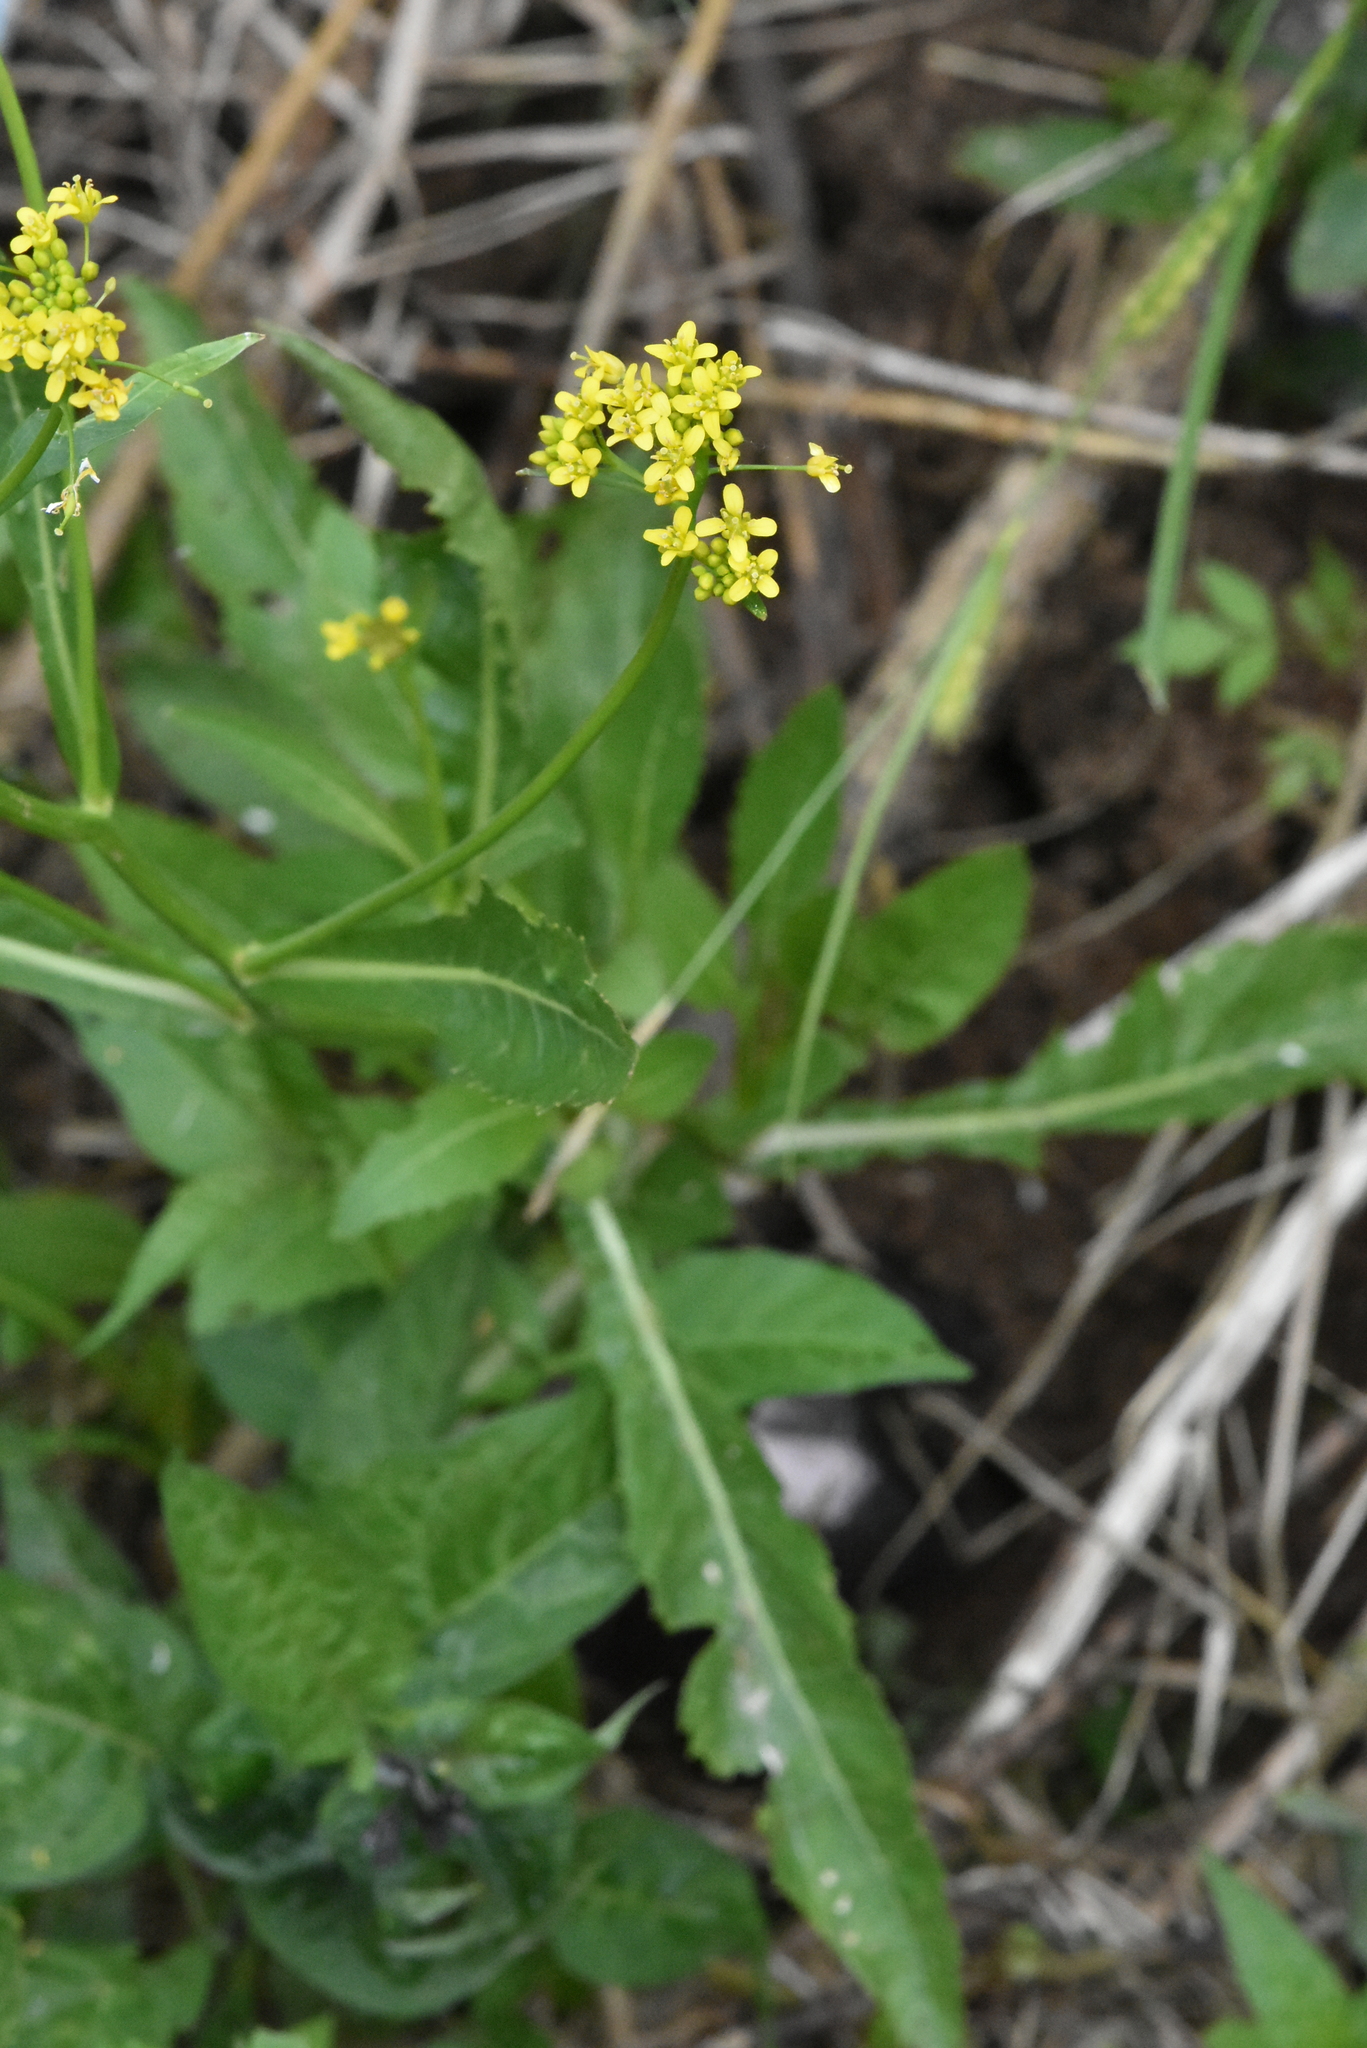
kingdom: Plantae
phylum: Tracheophyta
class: Magnoliopsida
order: Brassicales
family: Brassicaceae
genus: Rorippa
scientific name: Rorippa amphibia
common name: Great yellow-cress
